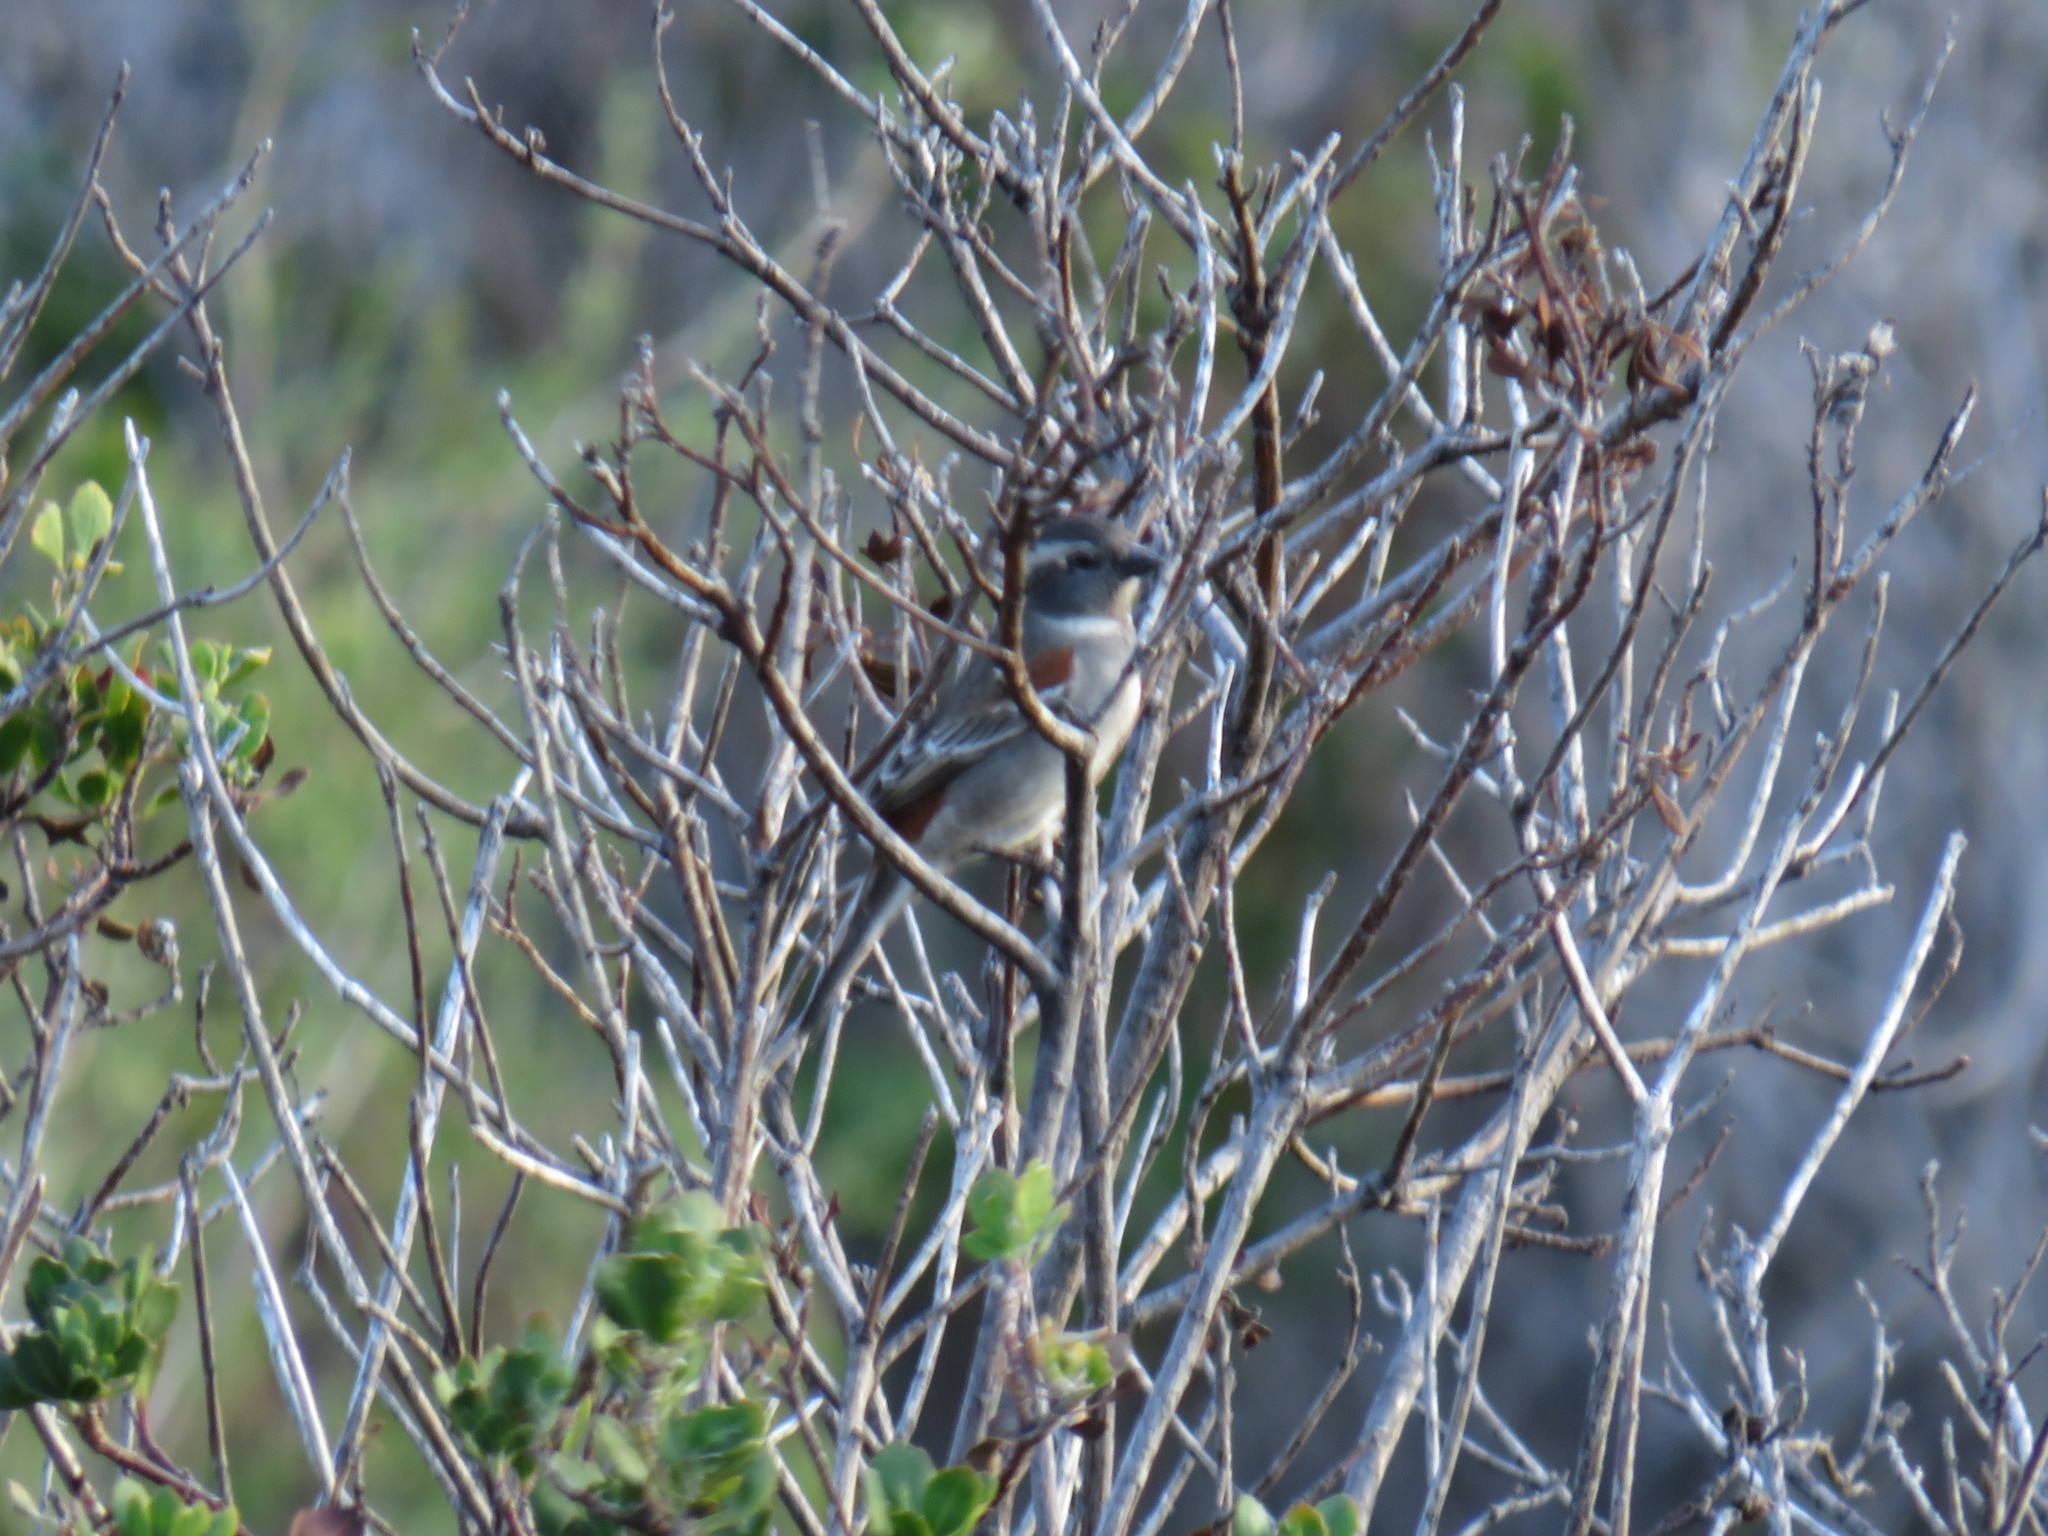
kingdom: Animalia
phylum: Chordata
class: Aves
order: Passeriformes
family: Passeridae
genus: Passer
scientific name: Passer melanurus
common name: Cape sparrow
